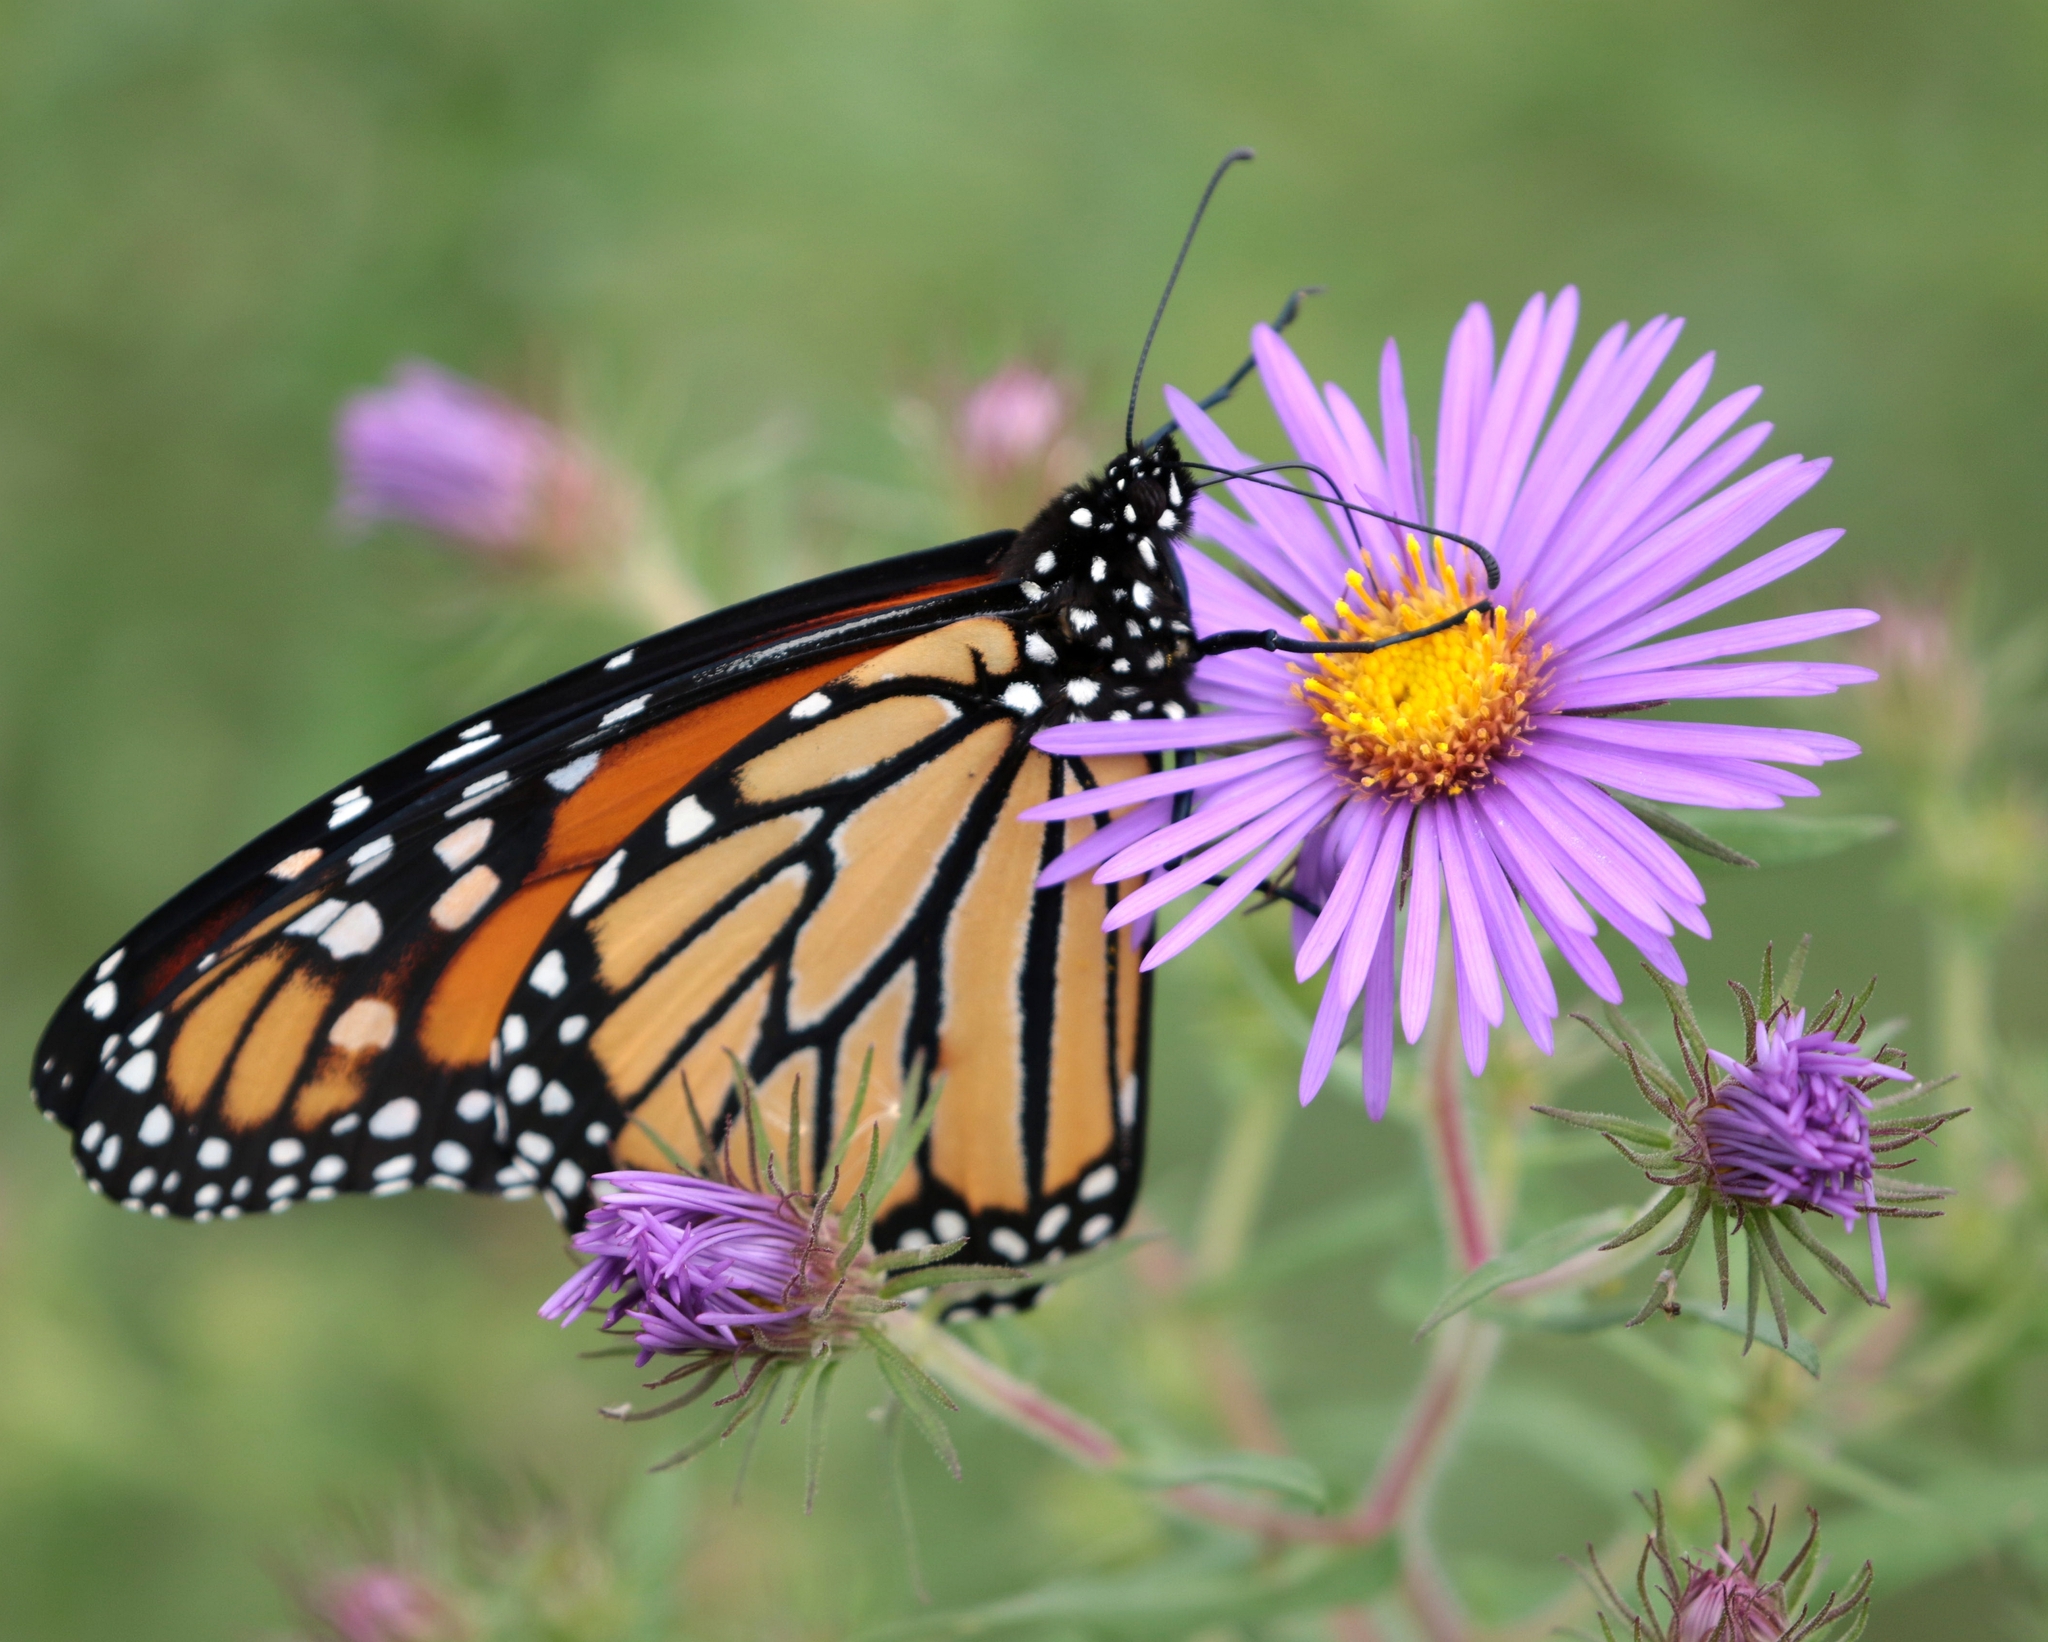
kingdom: Animalia
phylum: Arthropoda
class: Insecta
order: Lepidoptera
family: Nymphalidae
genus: Danaus
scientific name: Danaus plexippus
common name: Monarch
